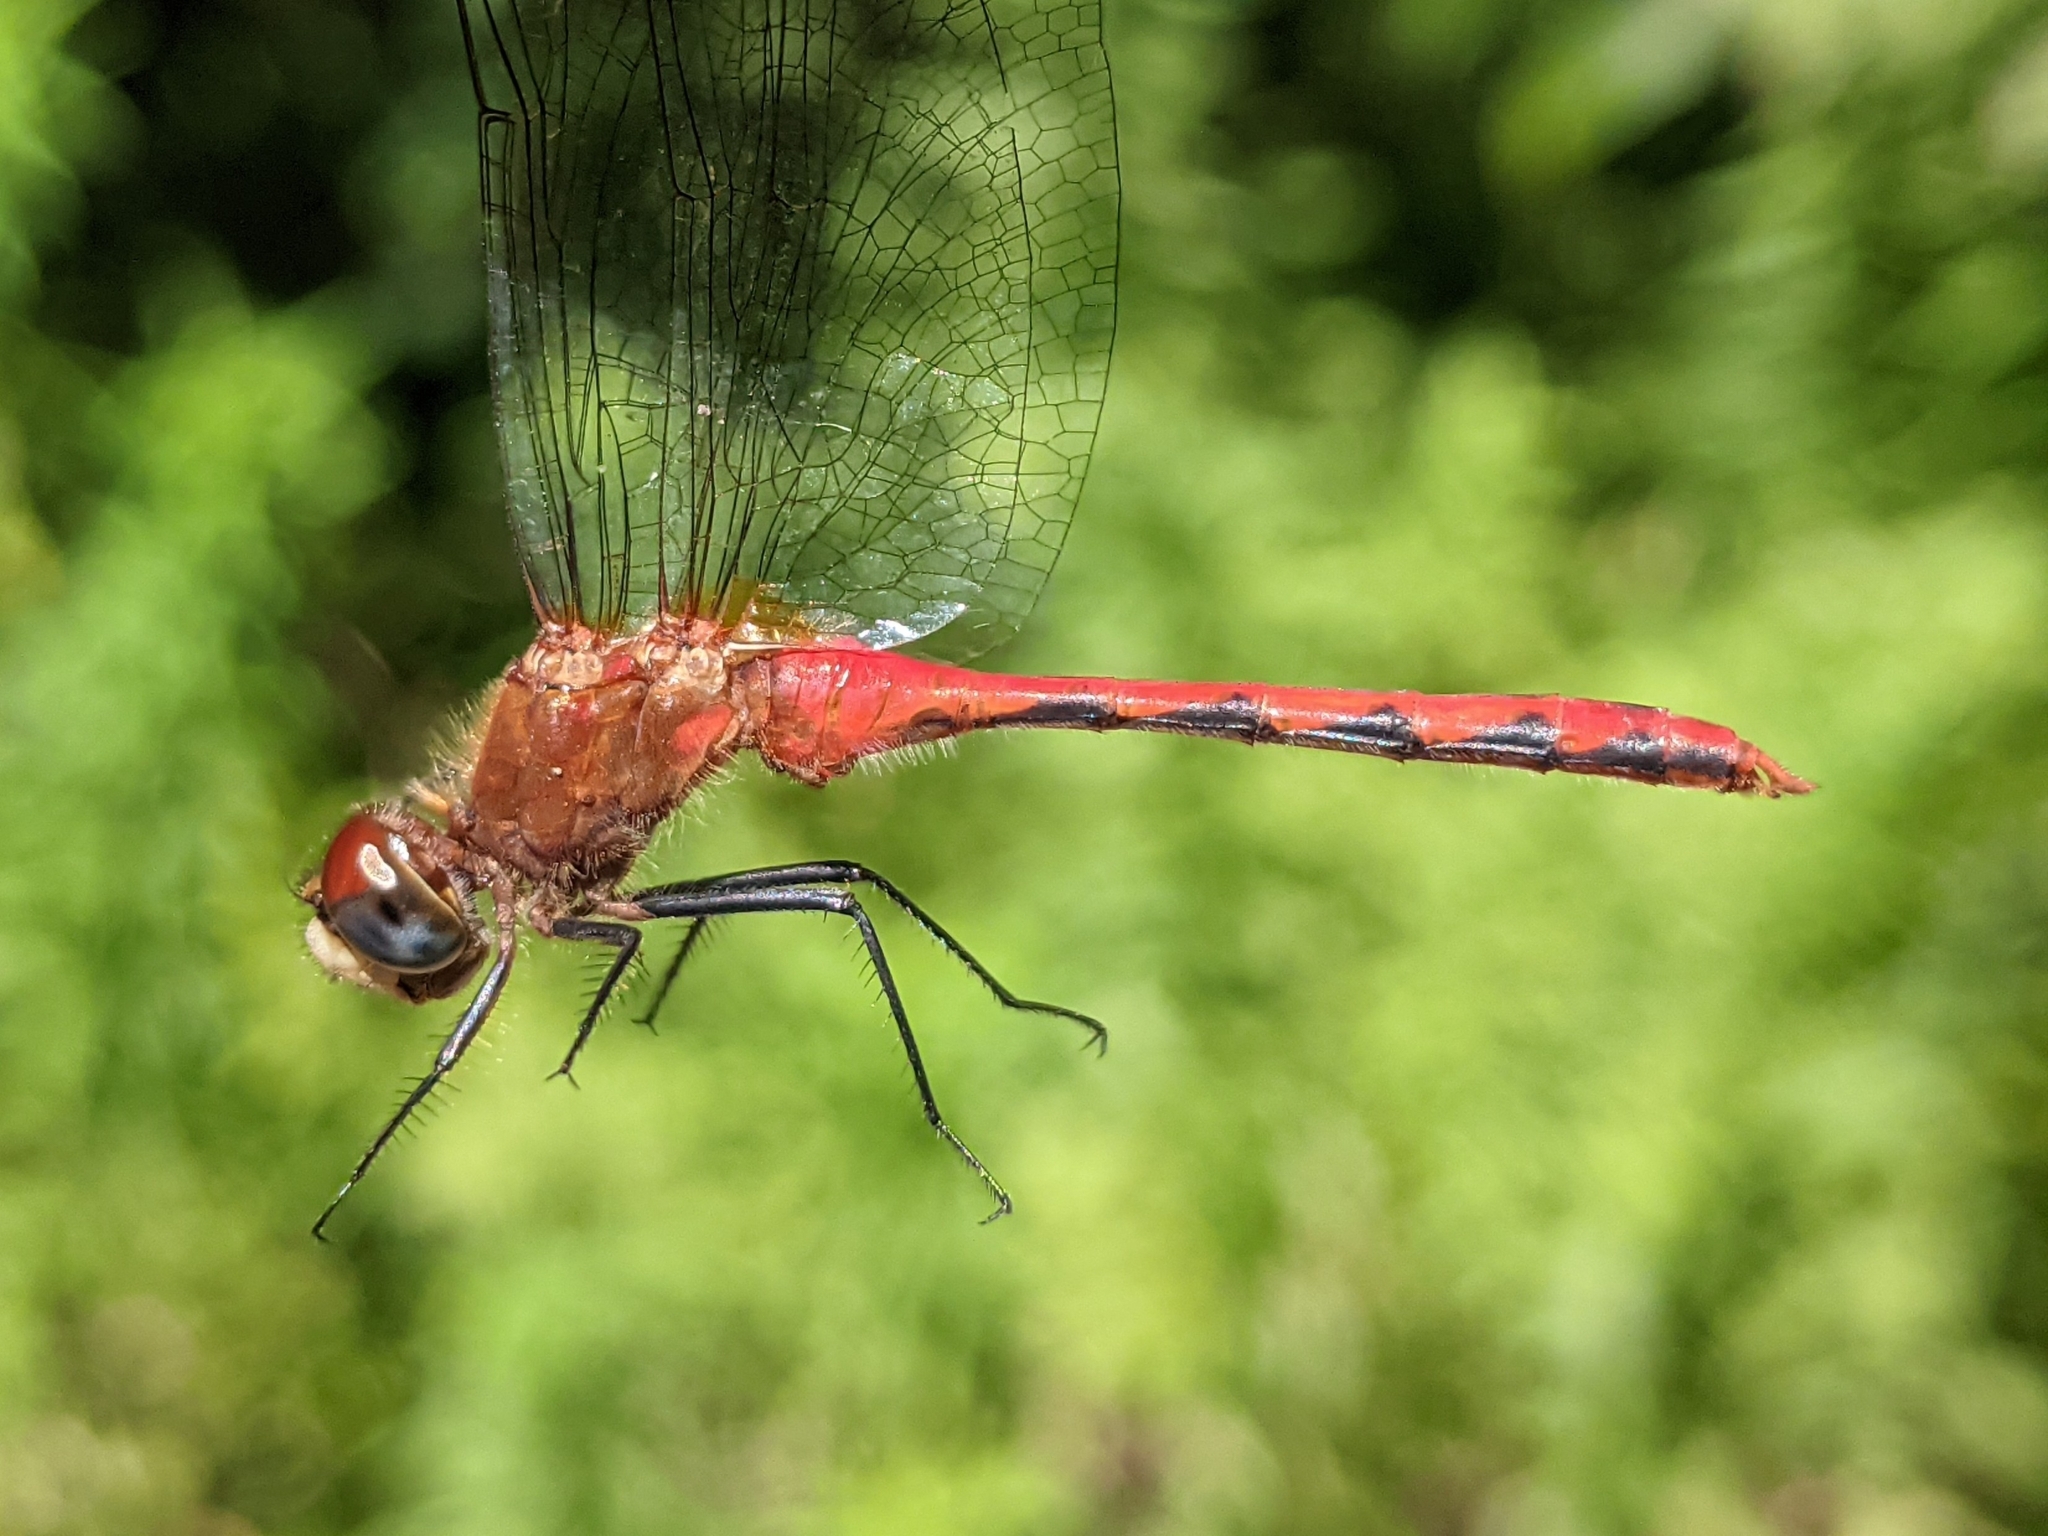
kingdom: Animalia
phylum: Arthropoda
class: Insecta
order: Odonata
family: Libellulidae
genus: Sympetrum
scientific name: Sympetrum obtrusum
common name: White-faced meadowhawk
